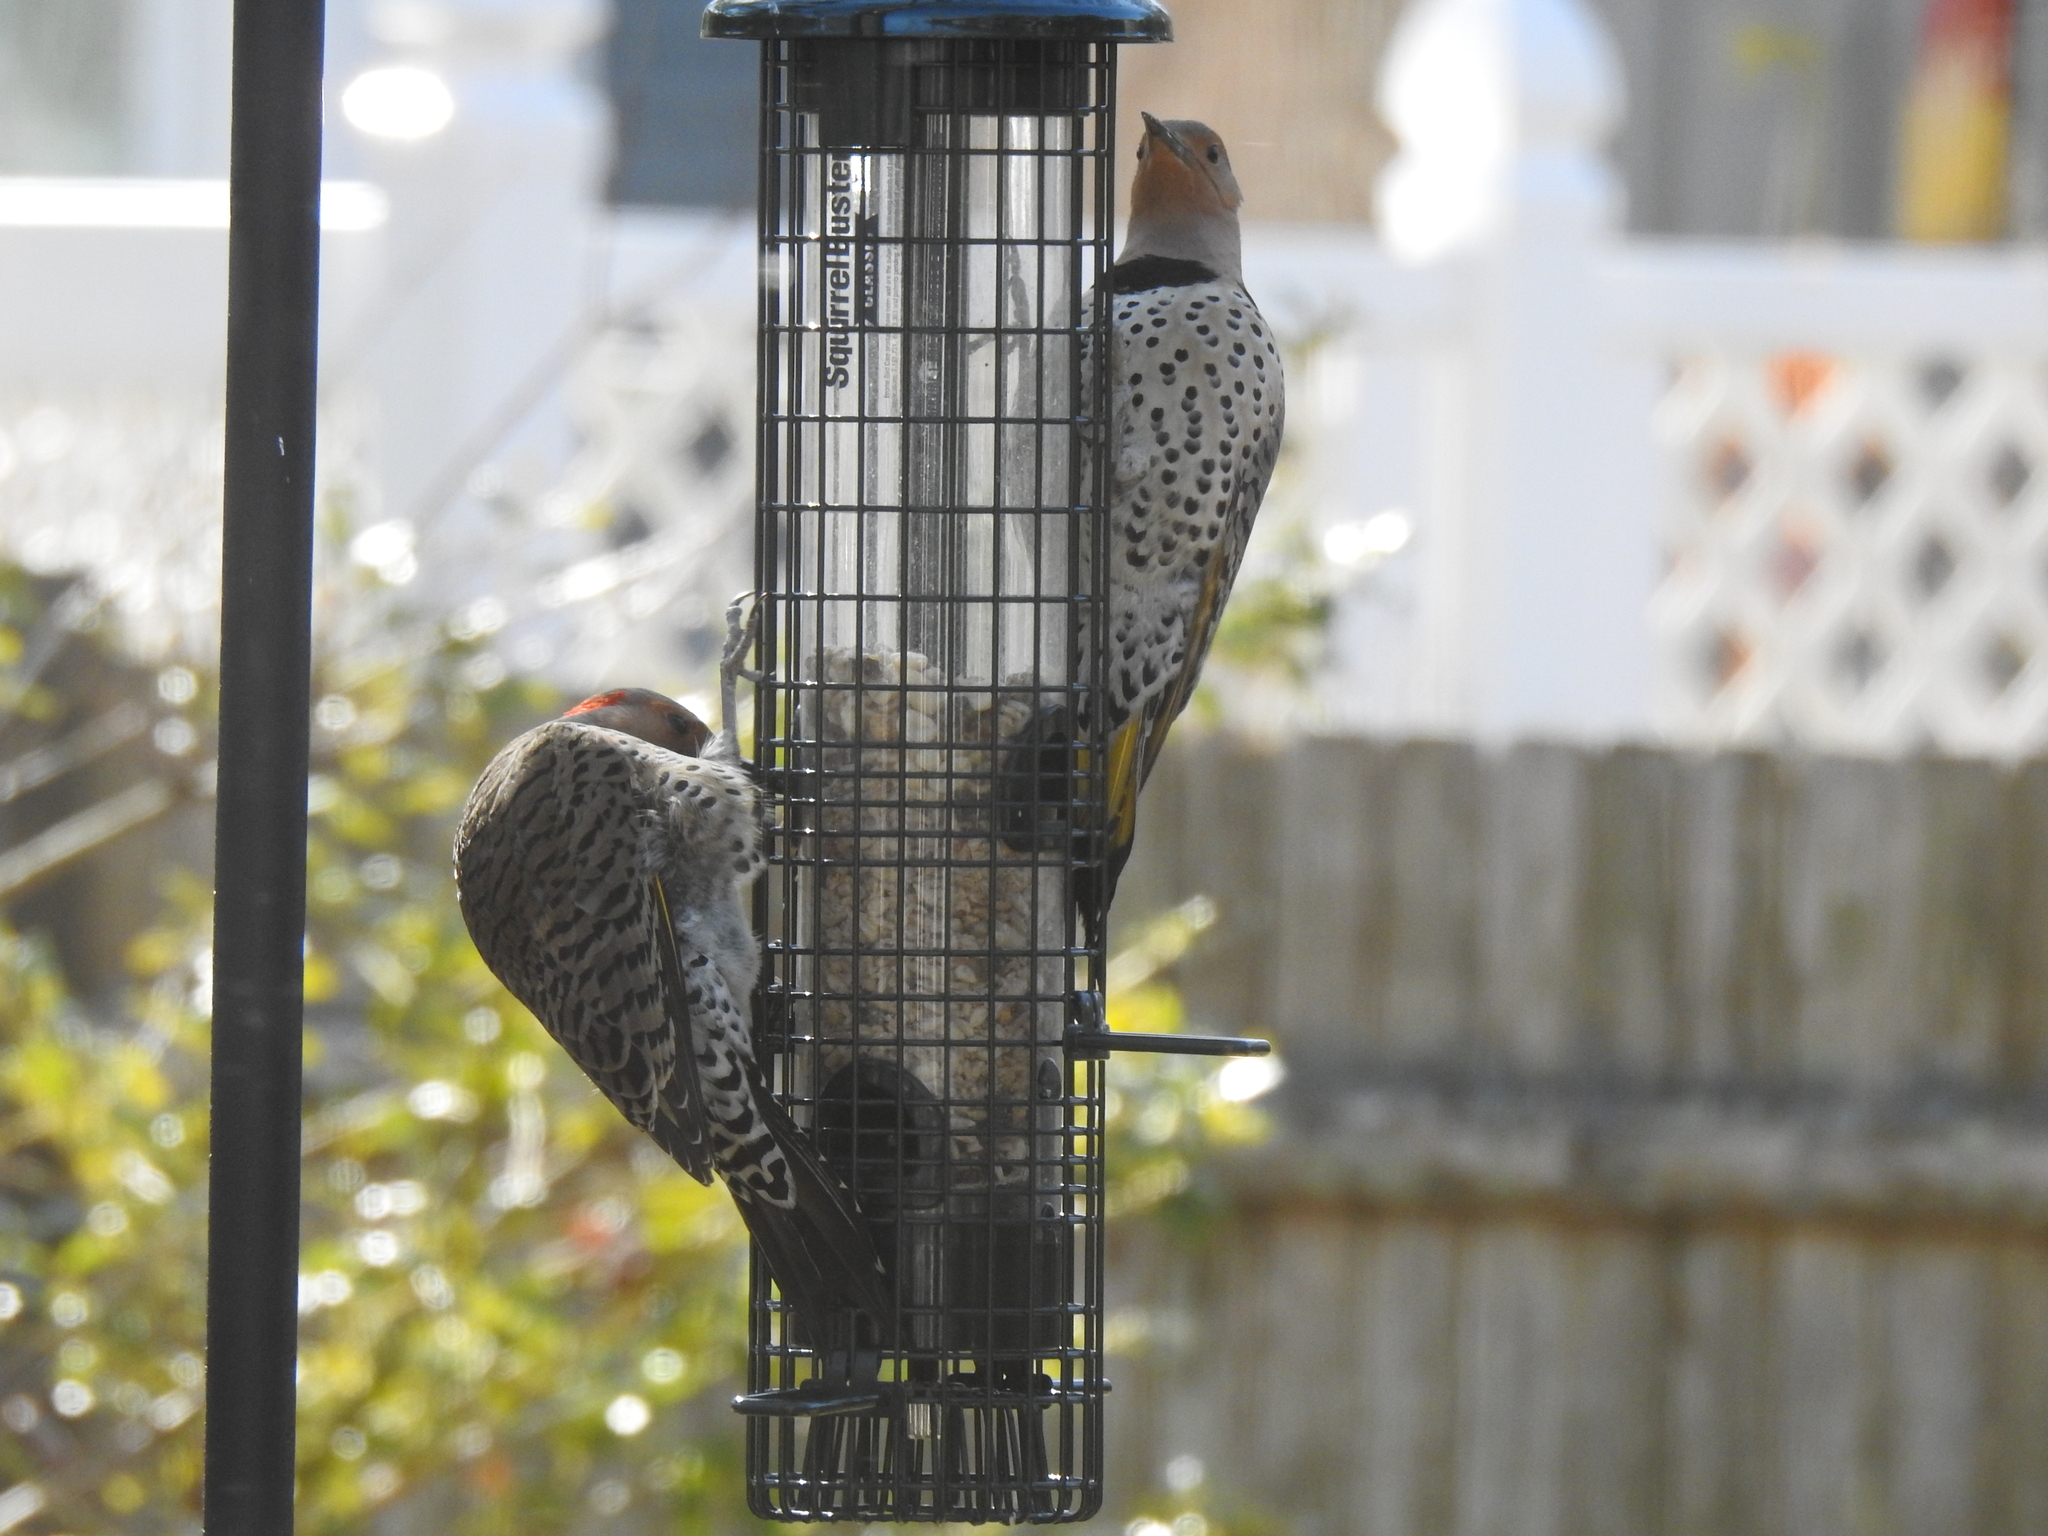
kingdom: Animalia
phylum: Chordata
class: Aves
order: Piciformes
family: Picidae
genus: Colaptes
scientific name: Colaptes auratus
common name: Northern flicker
